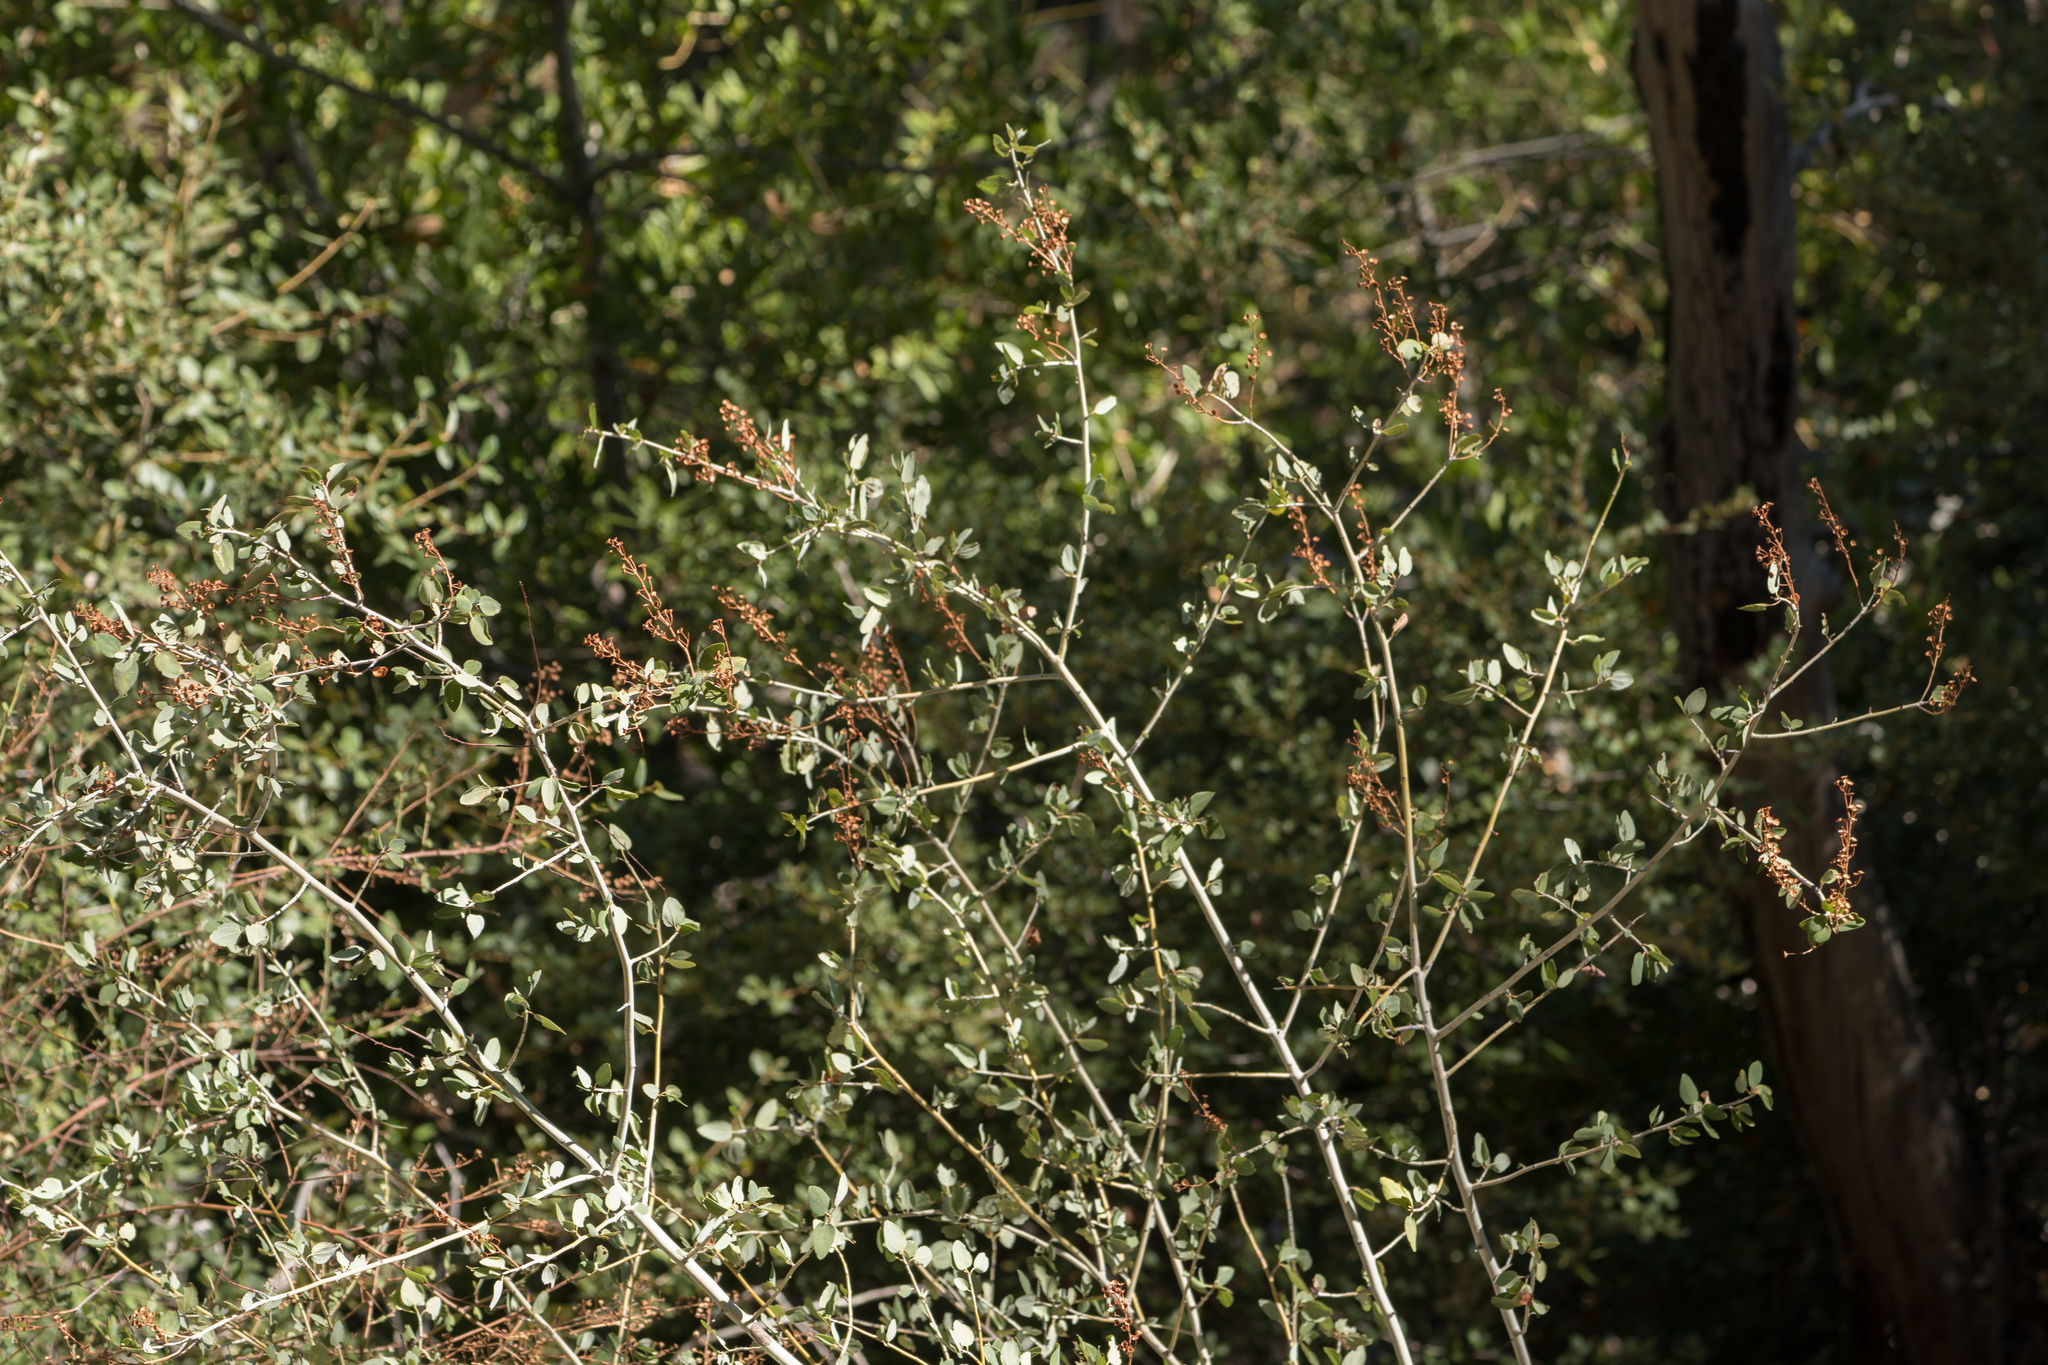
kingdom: Plantae
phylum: Tracheophyta
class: Magnoliopsida
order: Rosales
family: Rhamnaceae
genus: Ceanothus
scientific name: Ceanothus leucodermis
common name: Chaparral whitethorn
